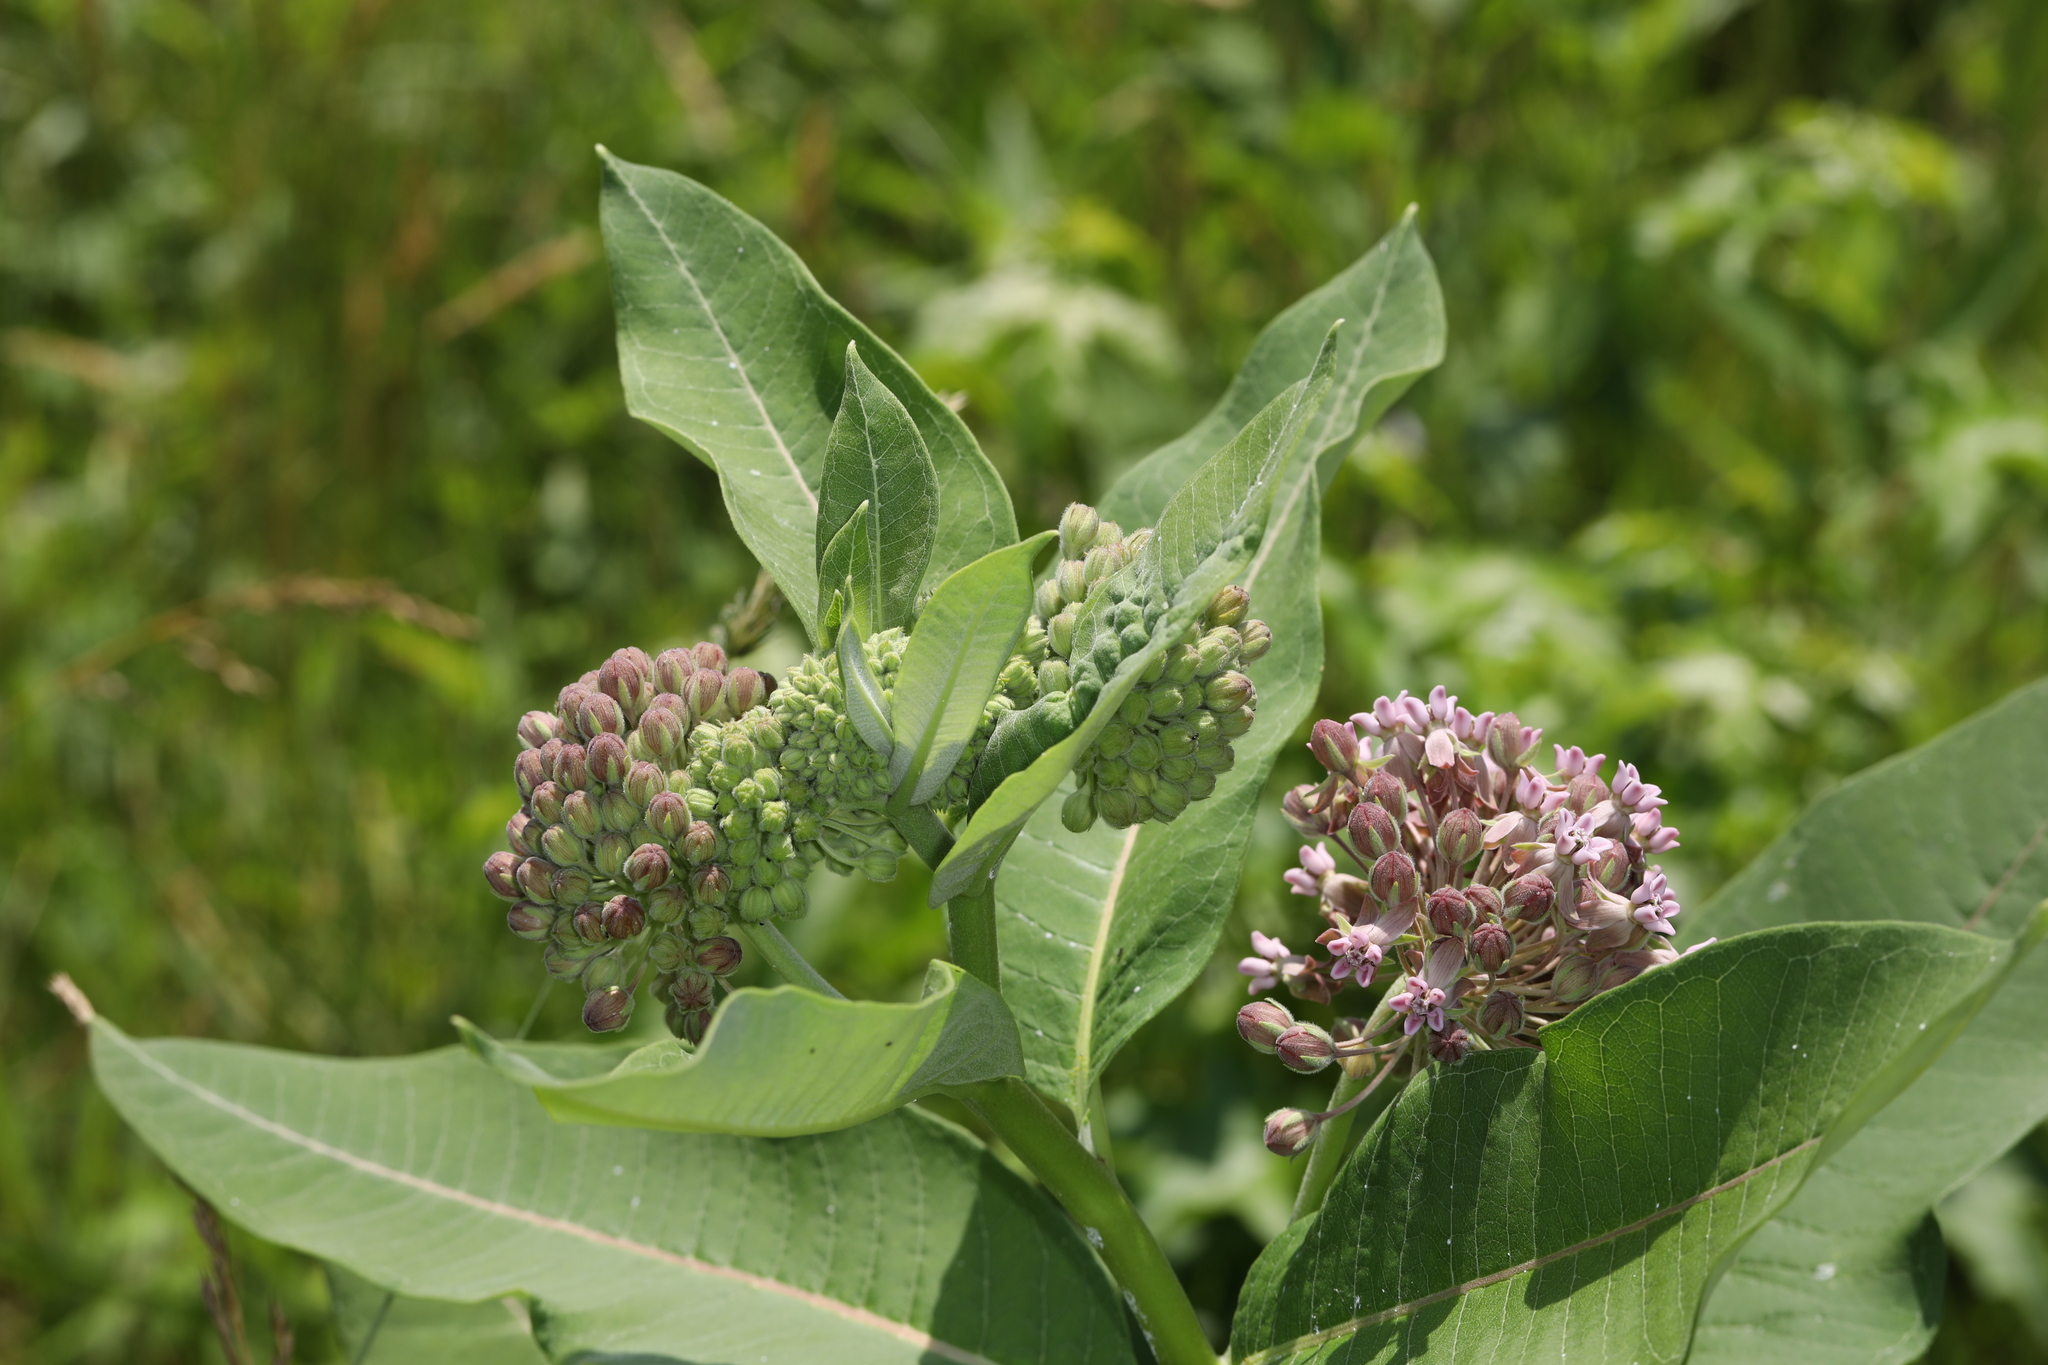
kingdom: Plantae
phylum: Tracheophyta
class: Magnoliopsida
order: Gentianales
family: Apocynaceae
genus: Asclepias
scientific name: Asclepias syriaca
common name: Common milkweed
